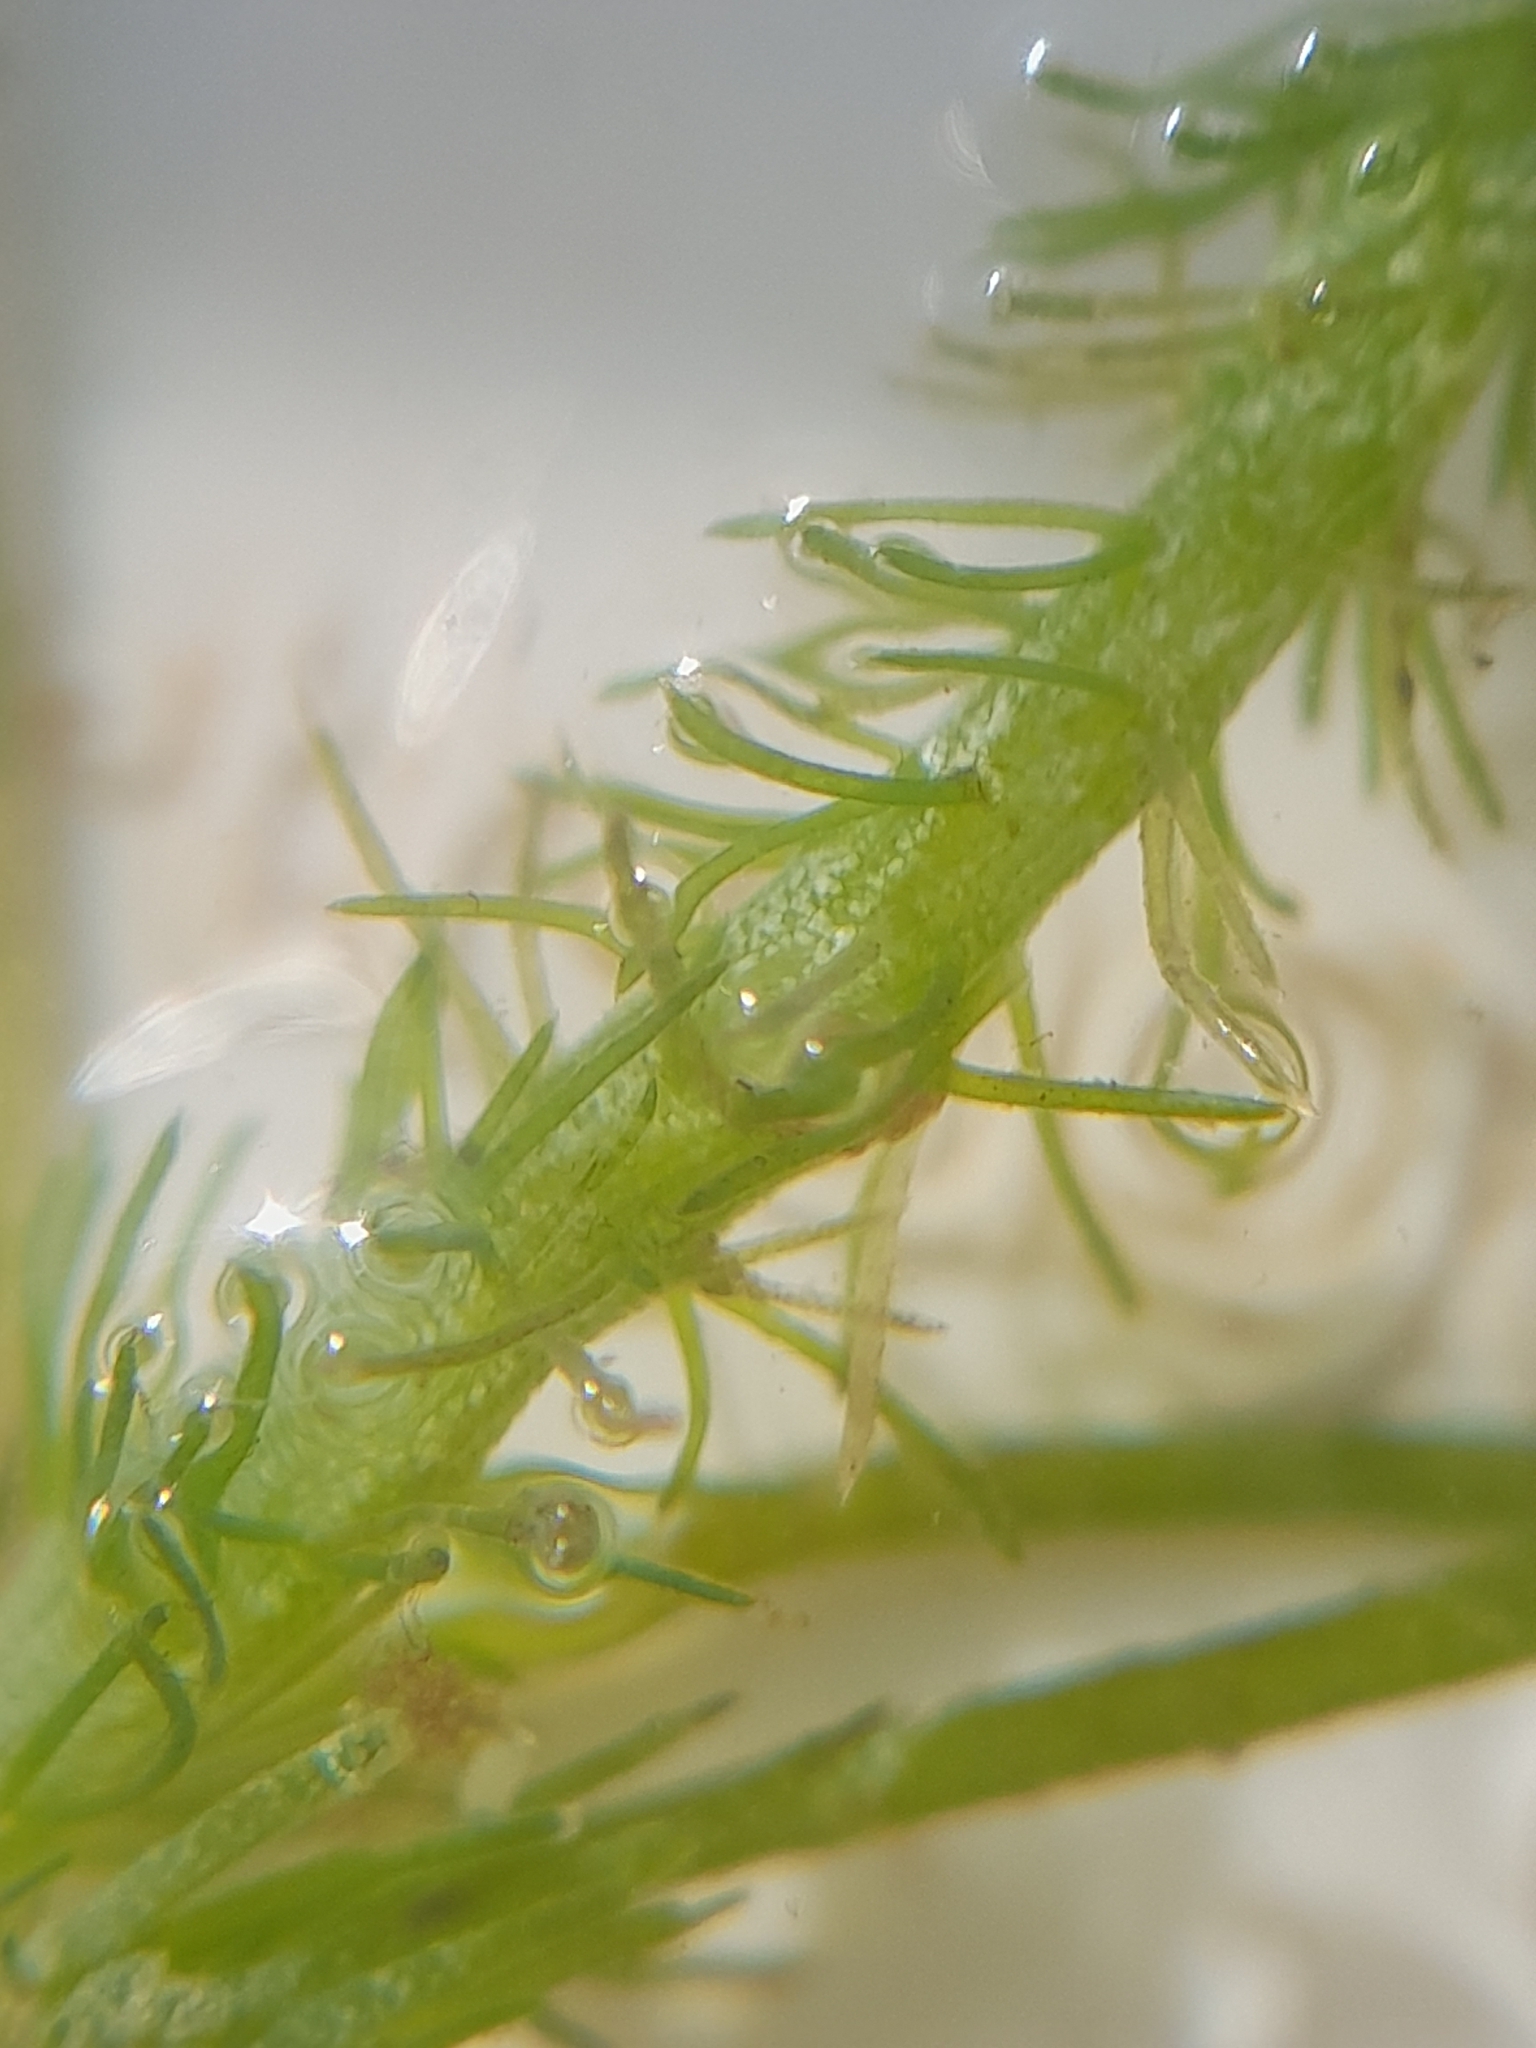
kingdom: Plantae
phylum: Charophyta
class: Charophyceae
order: Charales
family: Characeae
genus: Chara
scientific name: Chara aculeolata
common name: Hedgehog stonewort
